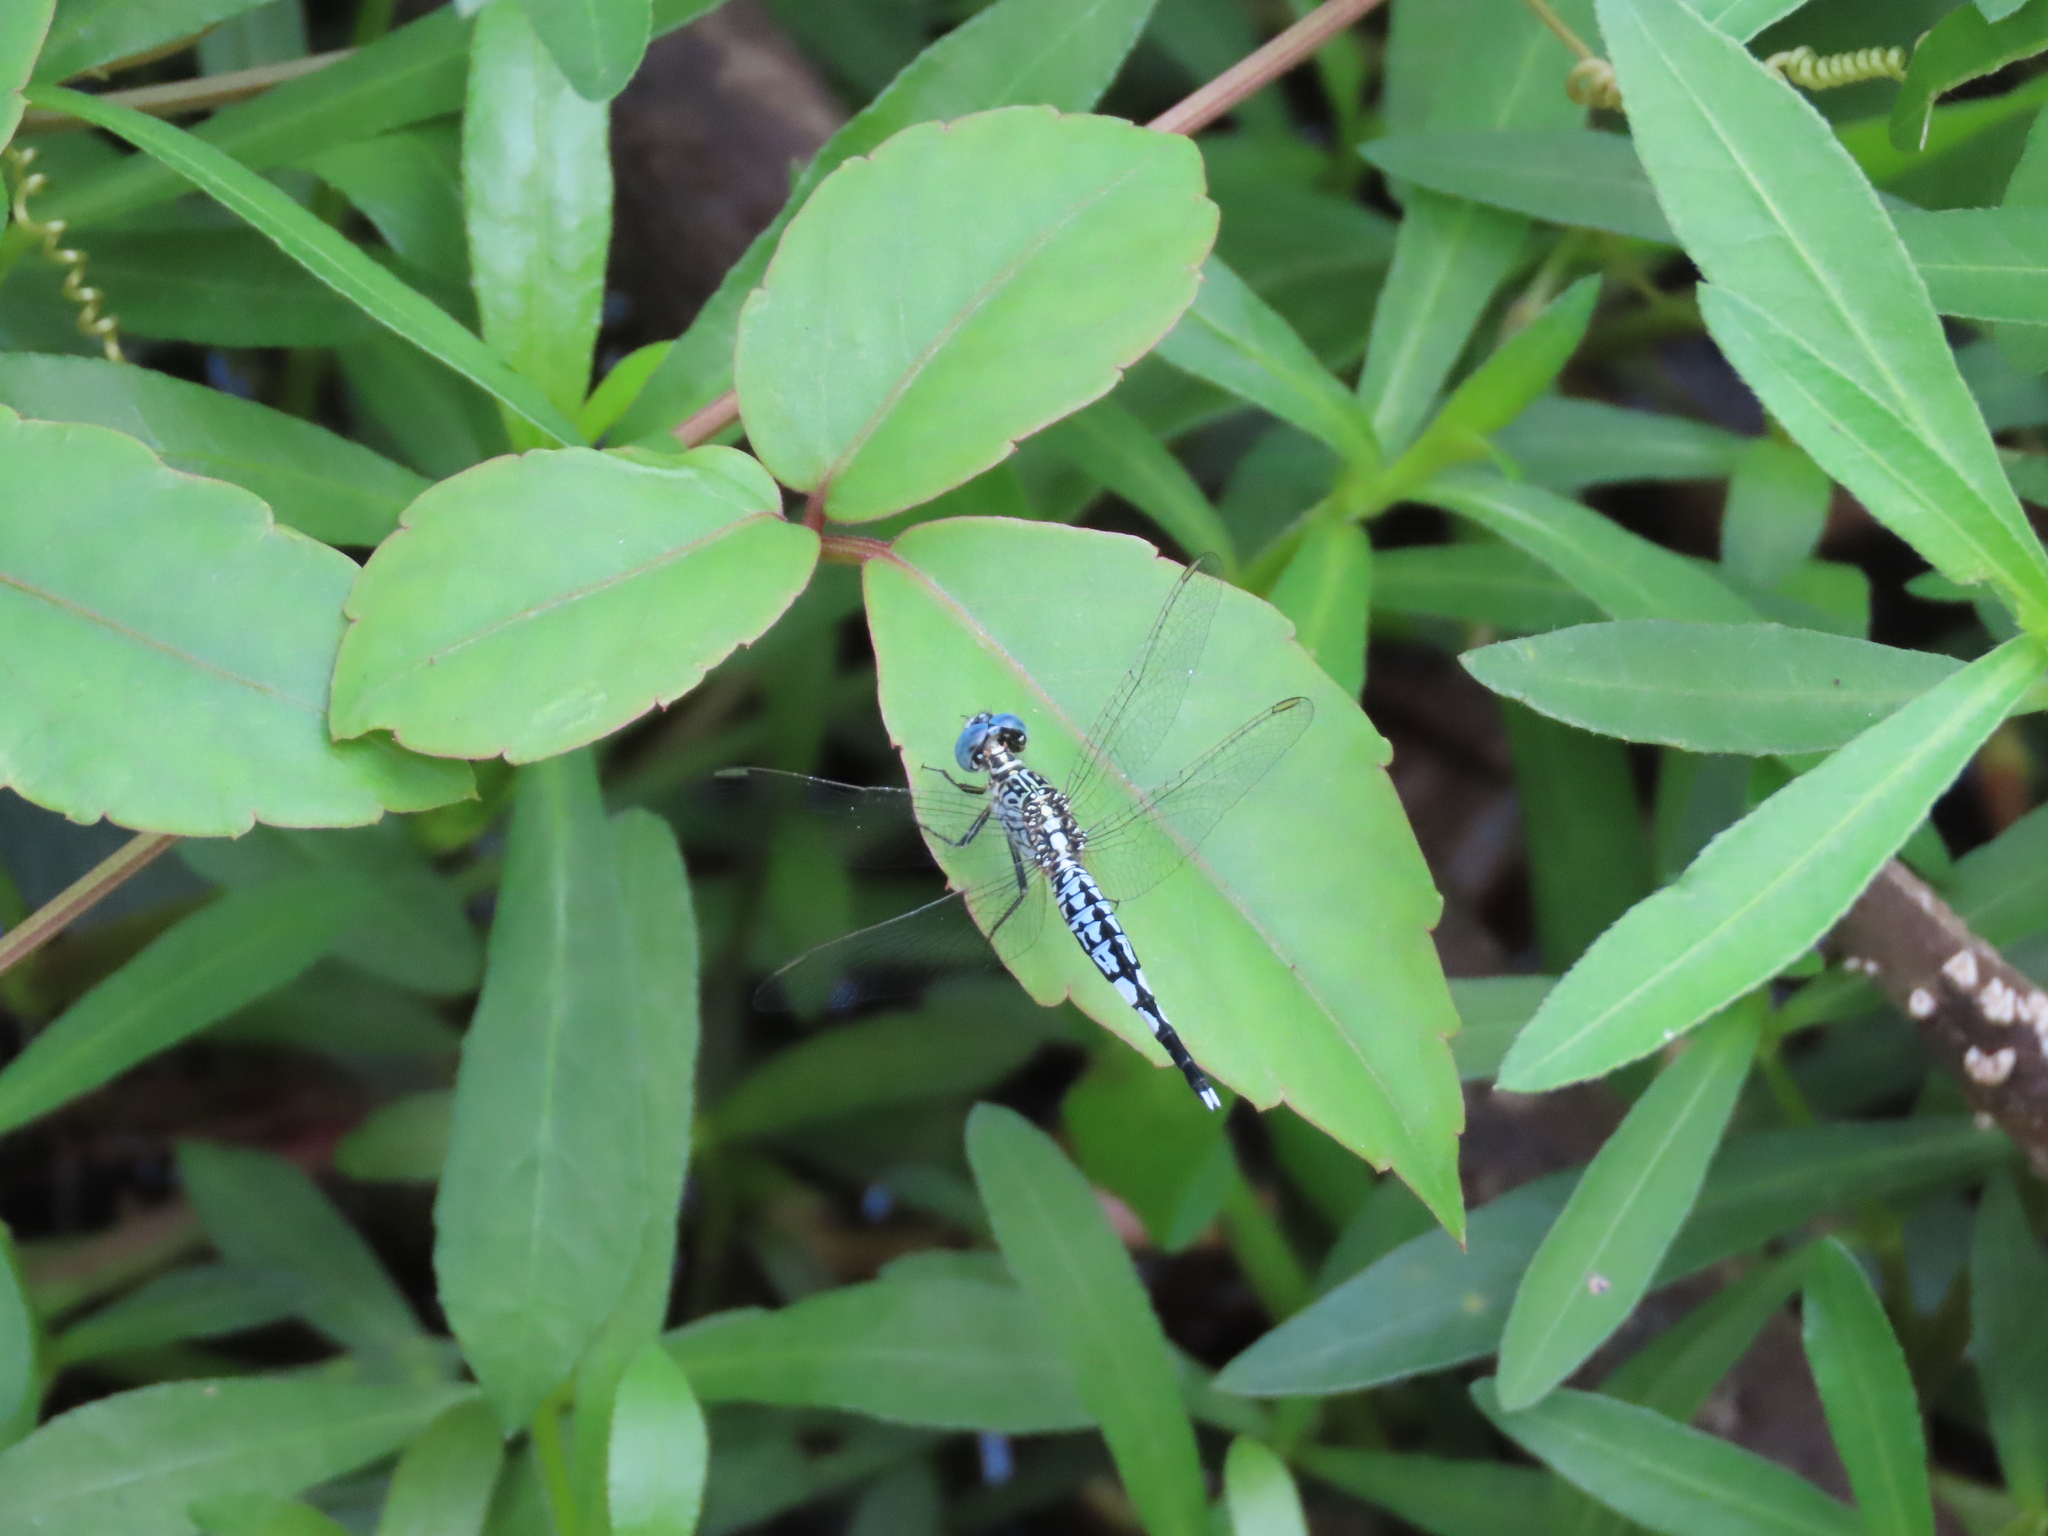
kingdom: Animalia
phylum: Arthropoda
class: Insecta
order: Odonata
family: Libellulidae
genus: Acisoma
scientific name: Acisoma panorpoides
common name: Asian pintail
